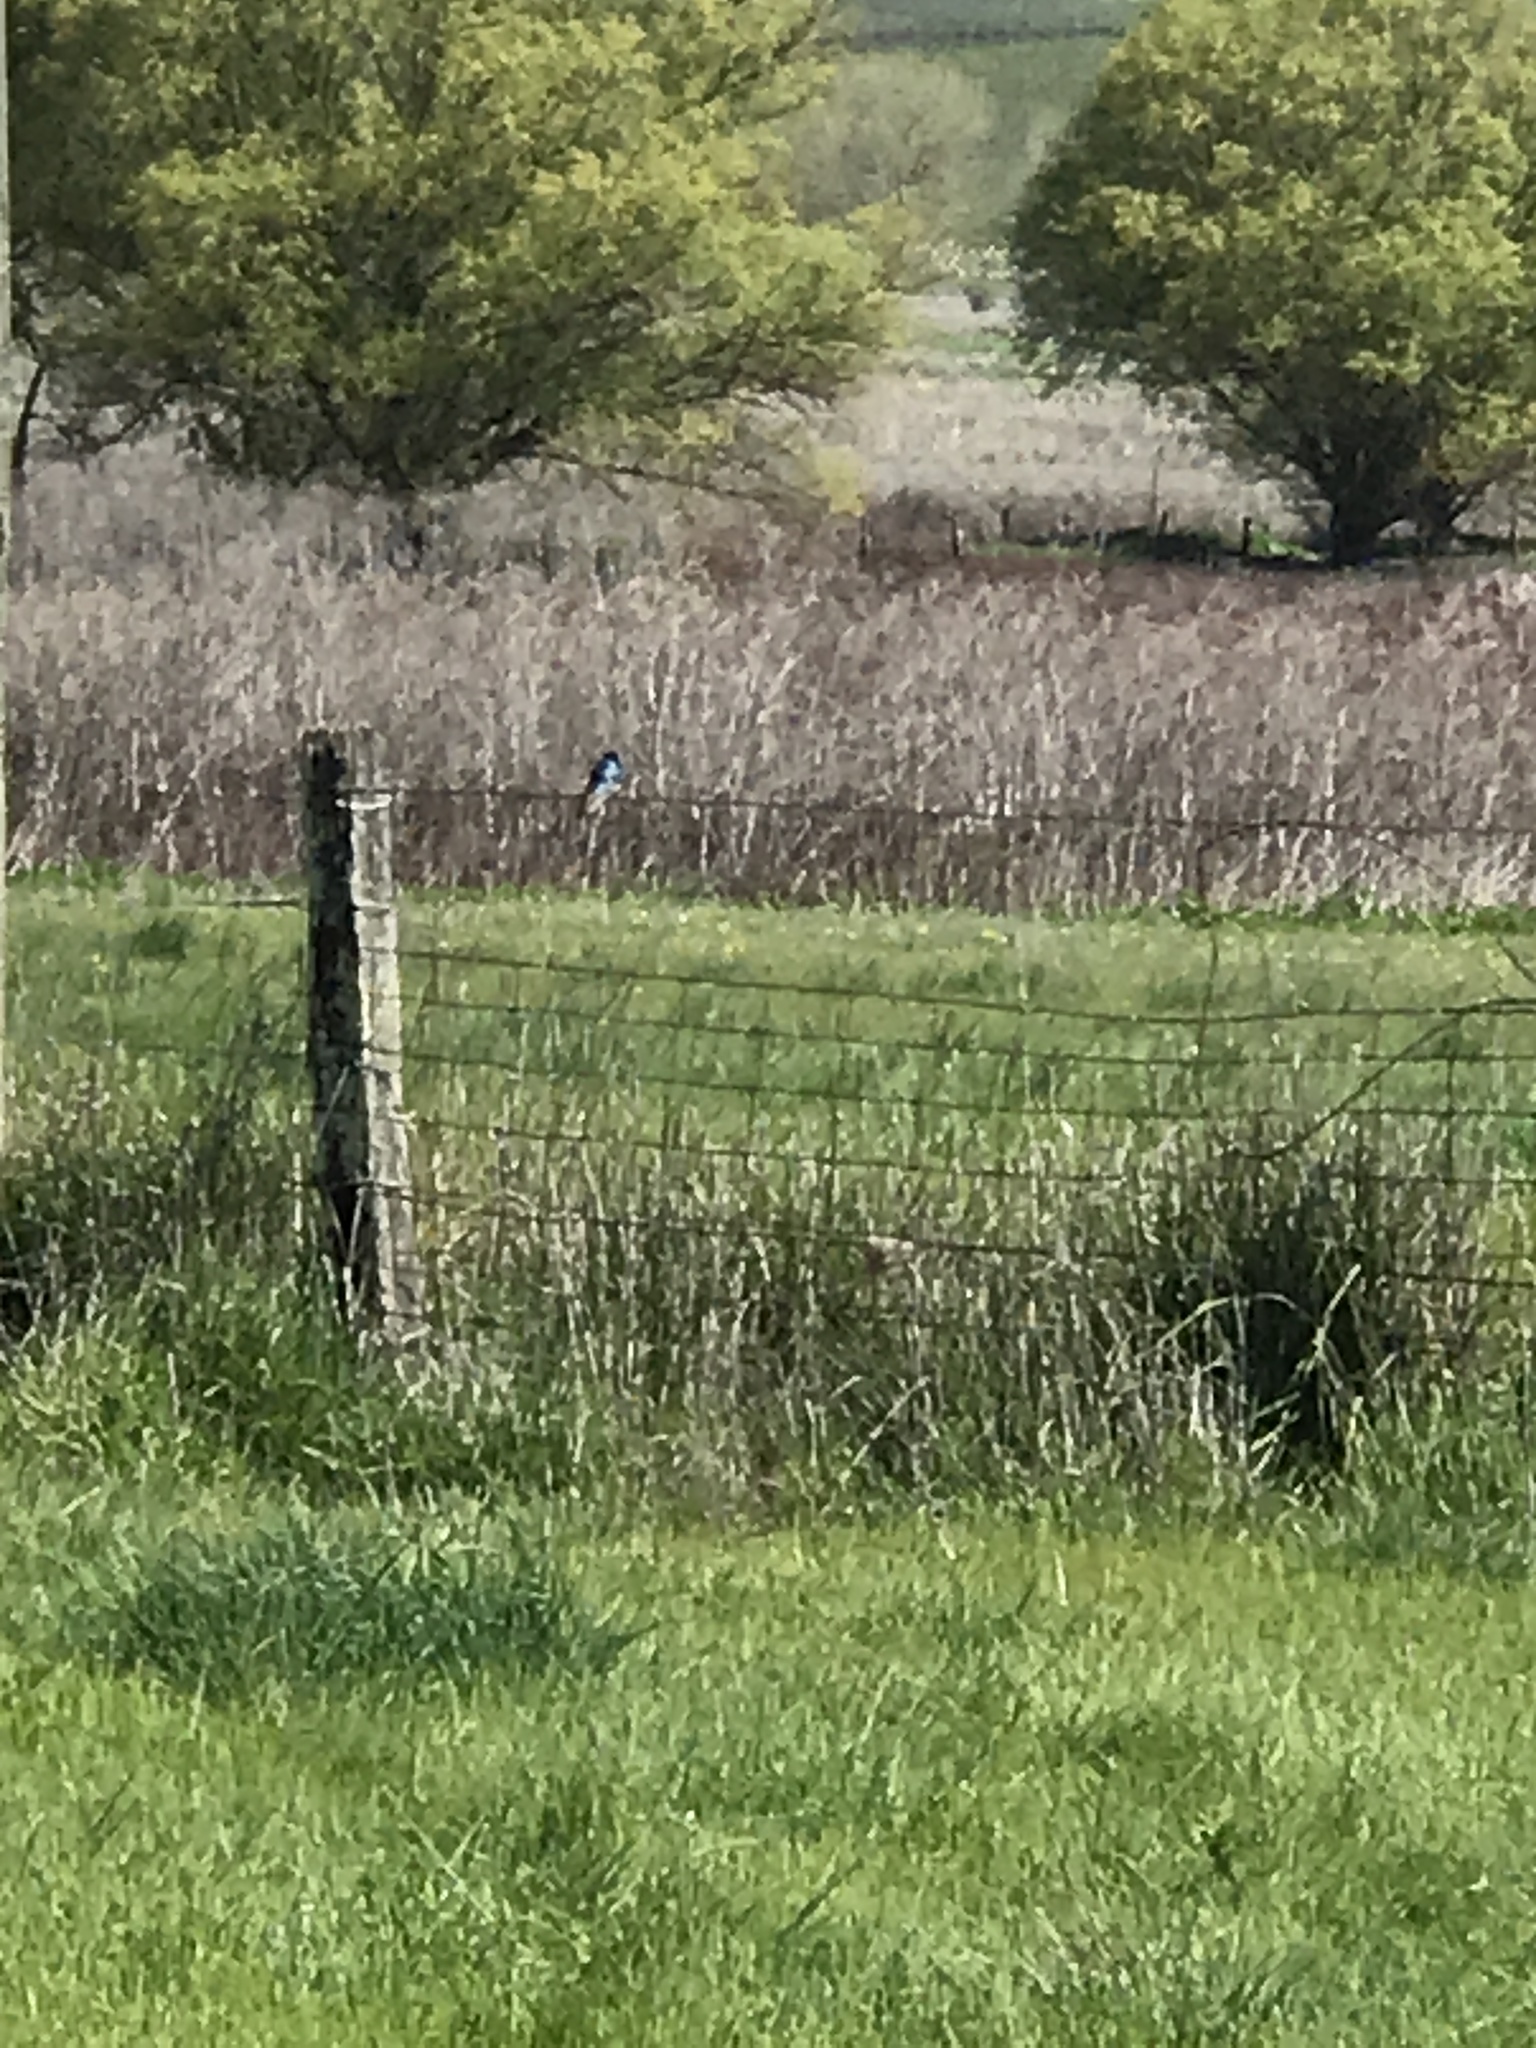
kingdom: Animalia
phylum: Chordata
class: Aves
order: Passeriformes
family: Hirundinidae
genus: Tachycineta
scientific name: Tachycineta bicolor
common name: Tree swallow
